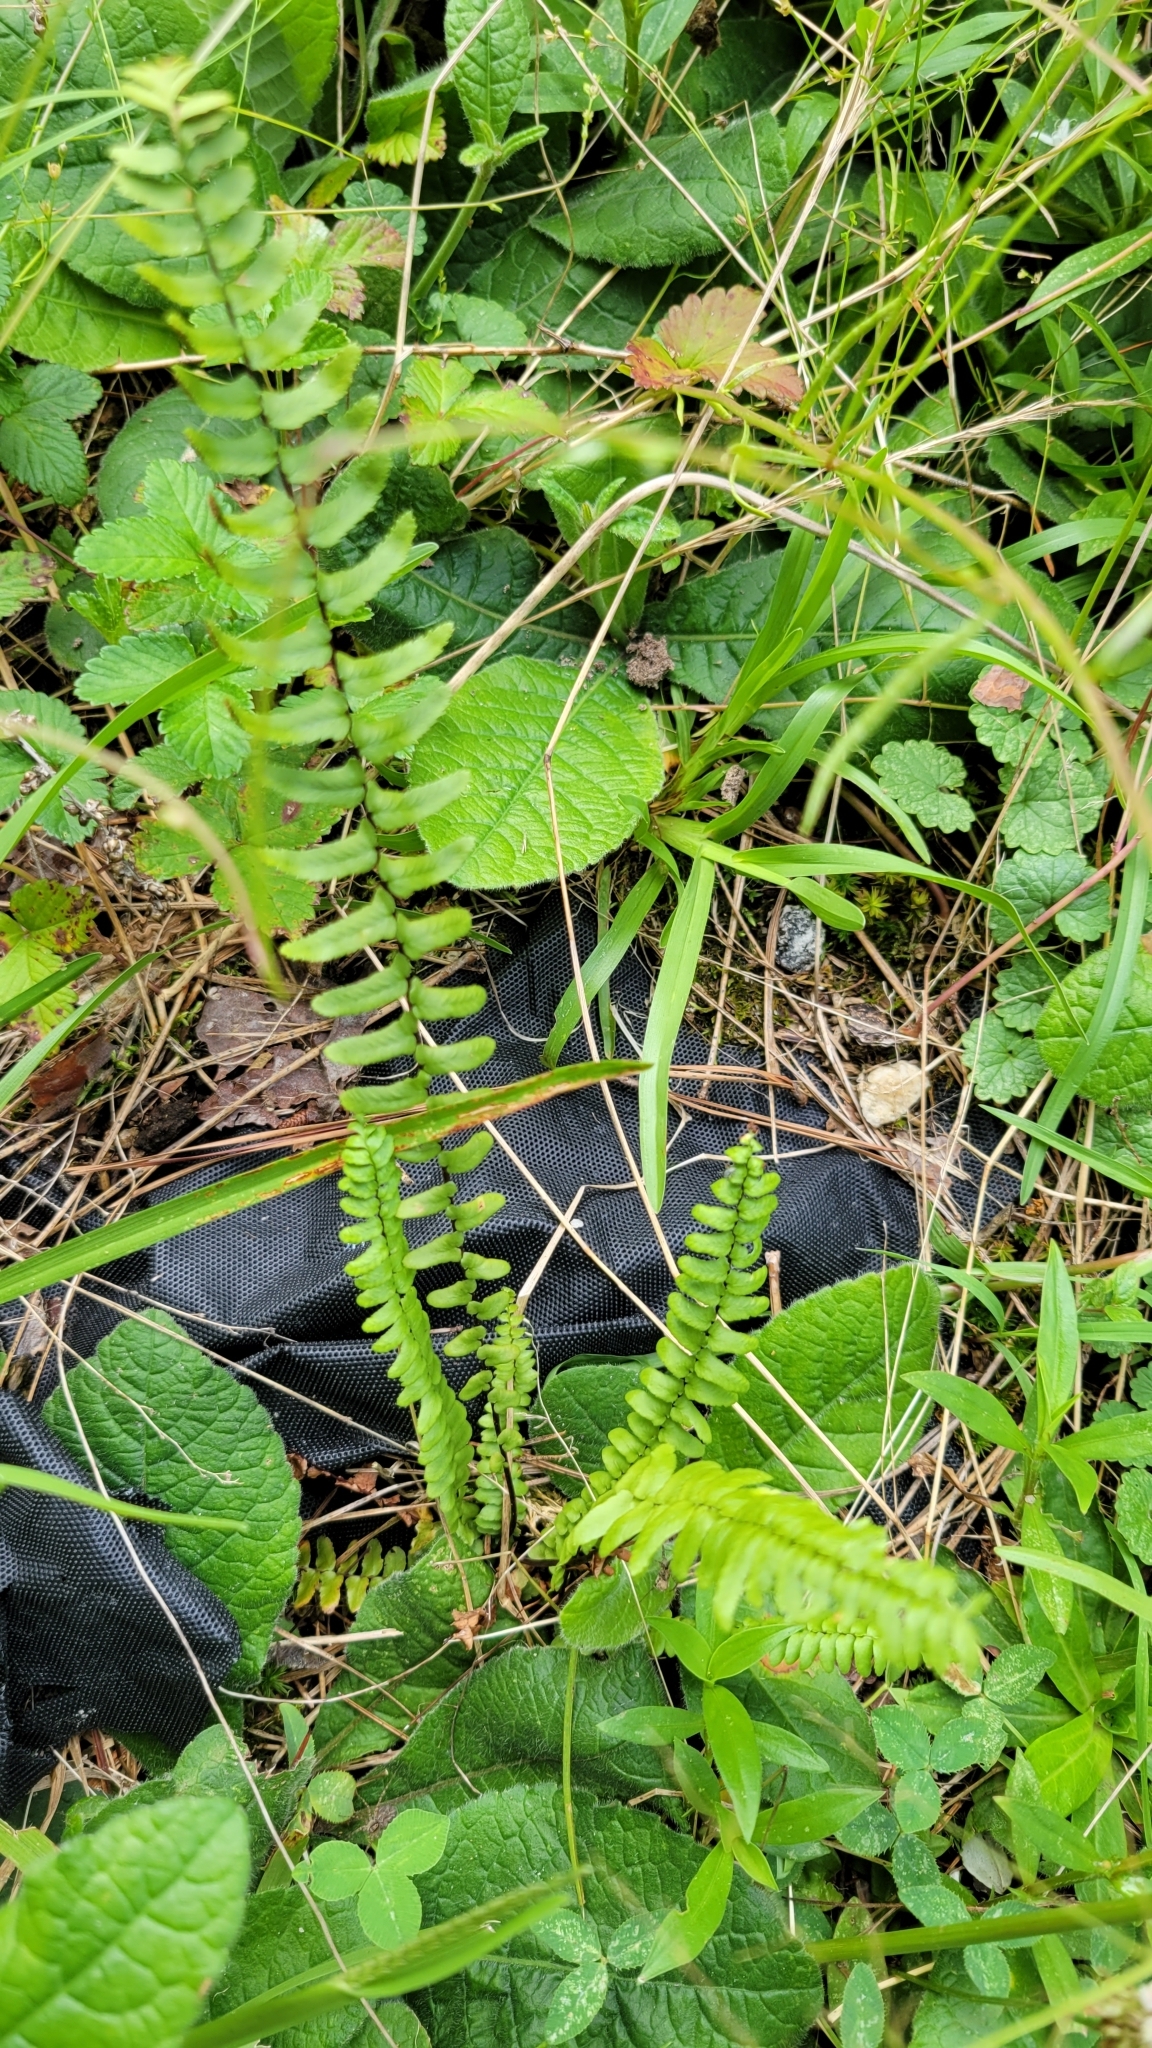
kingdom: Plantae
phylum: Tracheophyta
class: Polypodiopsida
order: Polypodiales
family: Aspleniaceae
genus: Asplenium
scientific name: Asplenium platyneuron
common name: Ebony spleenwort
